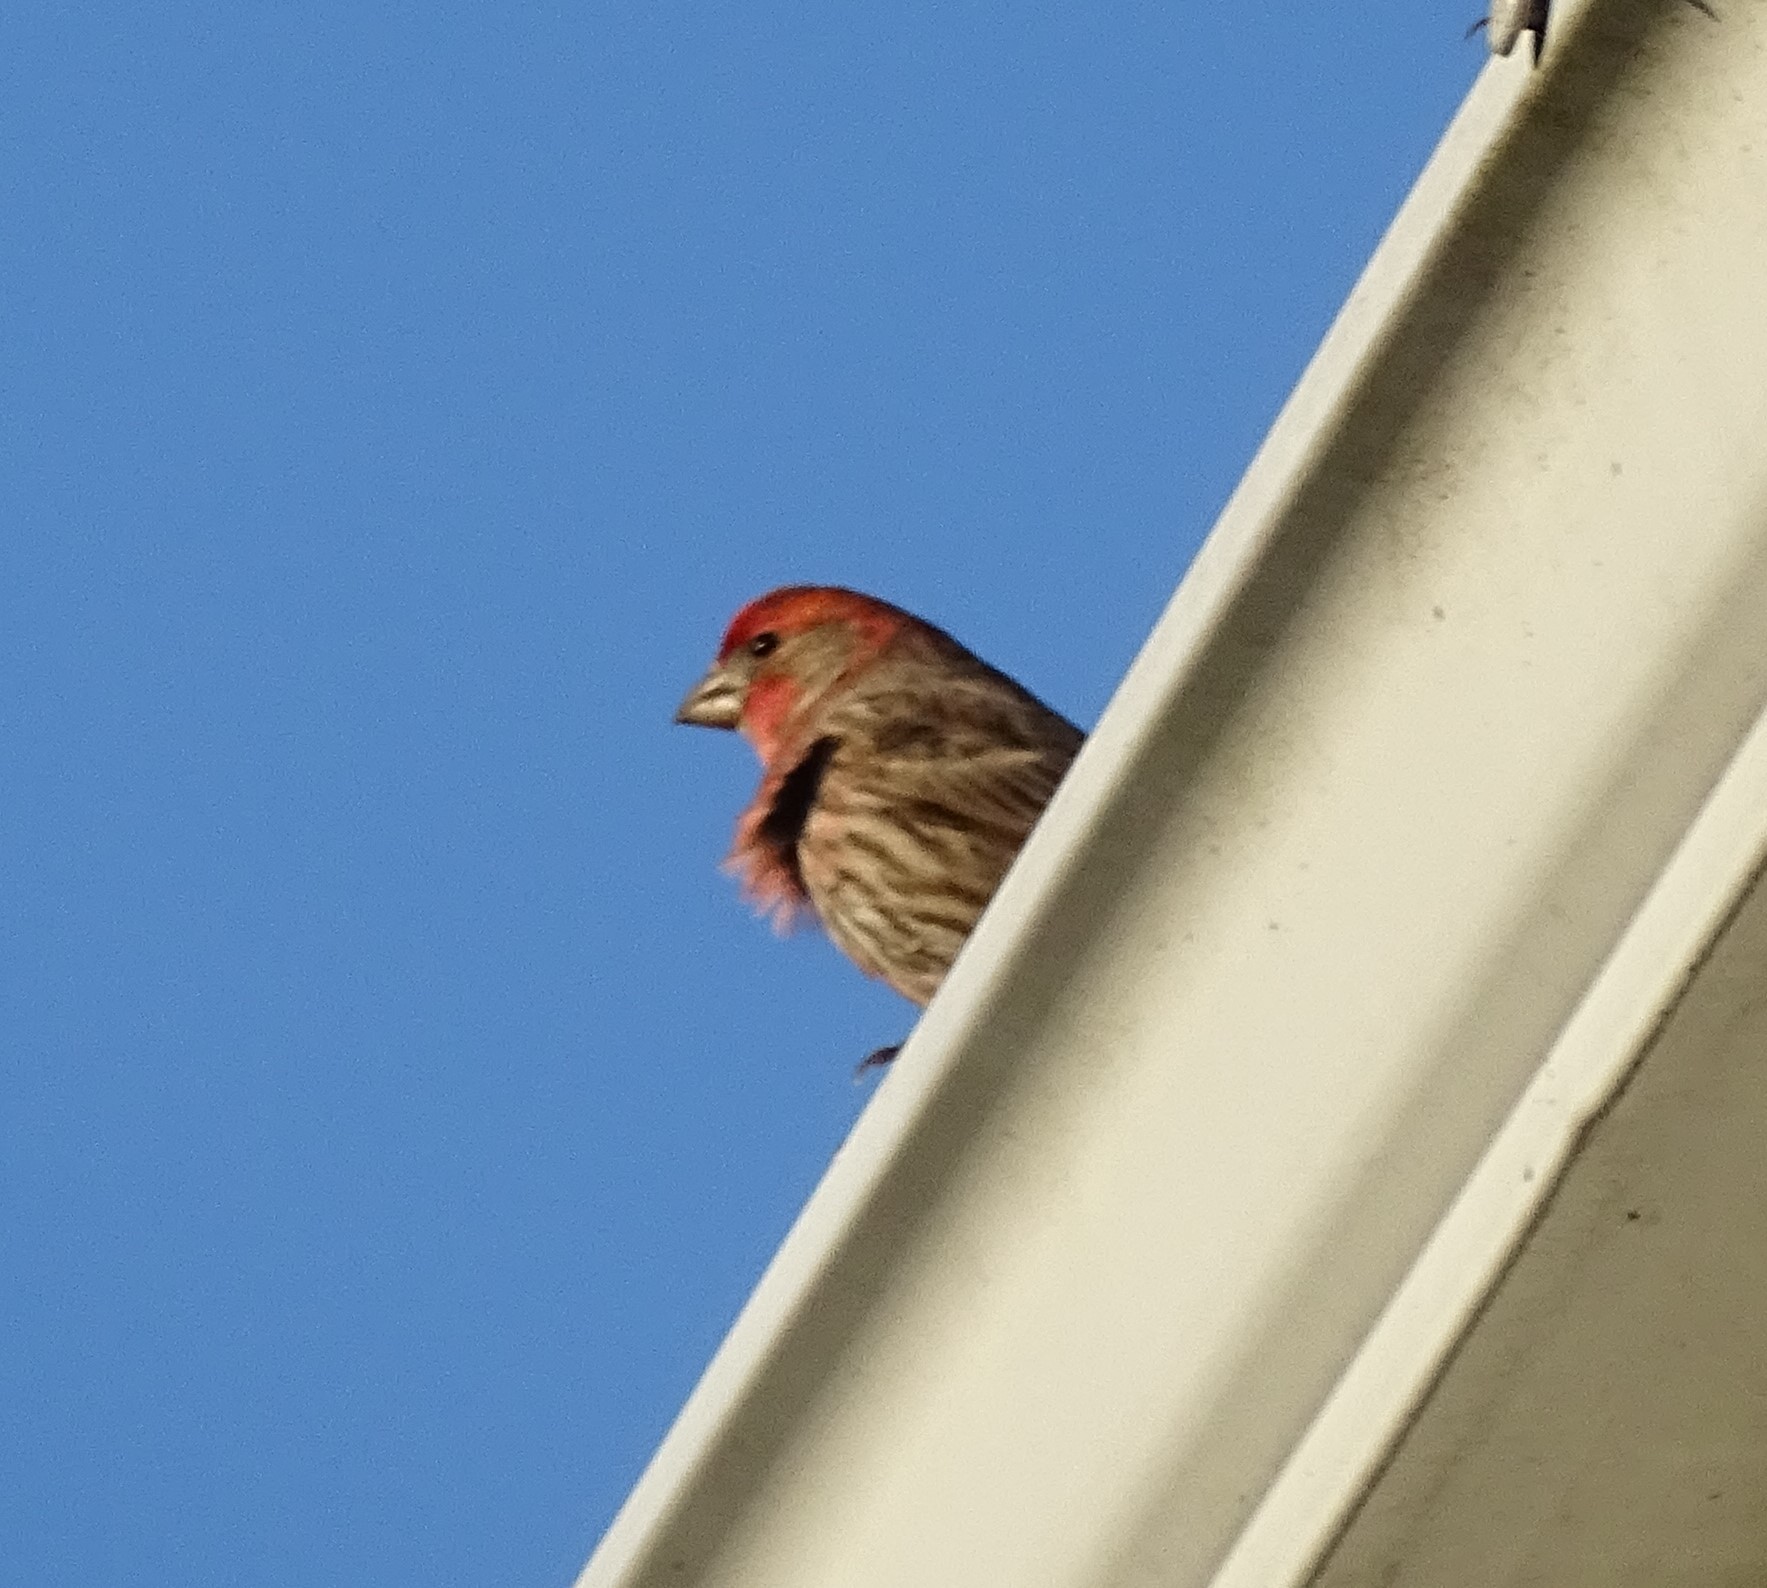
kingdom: Animalia
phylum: Chordata
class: Aves
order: Passeriformes
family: Fringillidae
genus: Haemorhous
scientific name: Haemorhous mexicanus
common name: House finch
